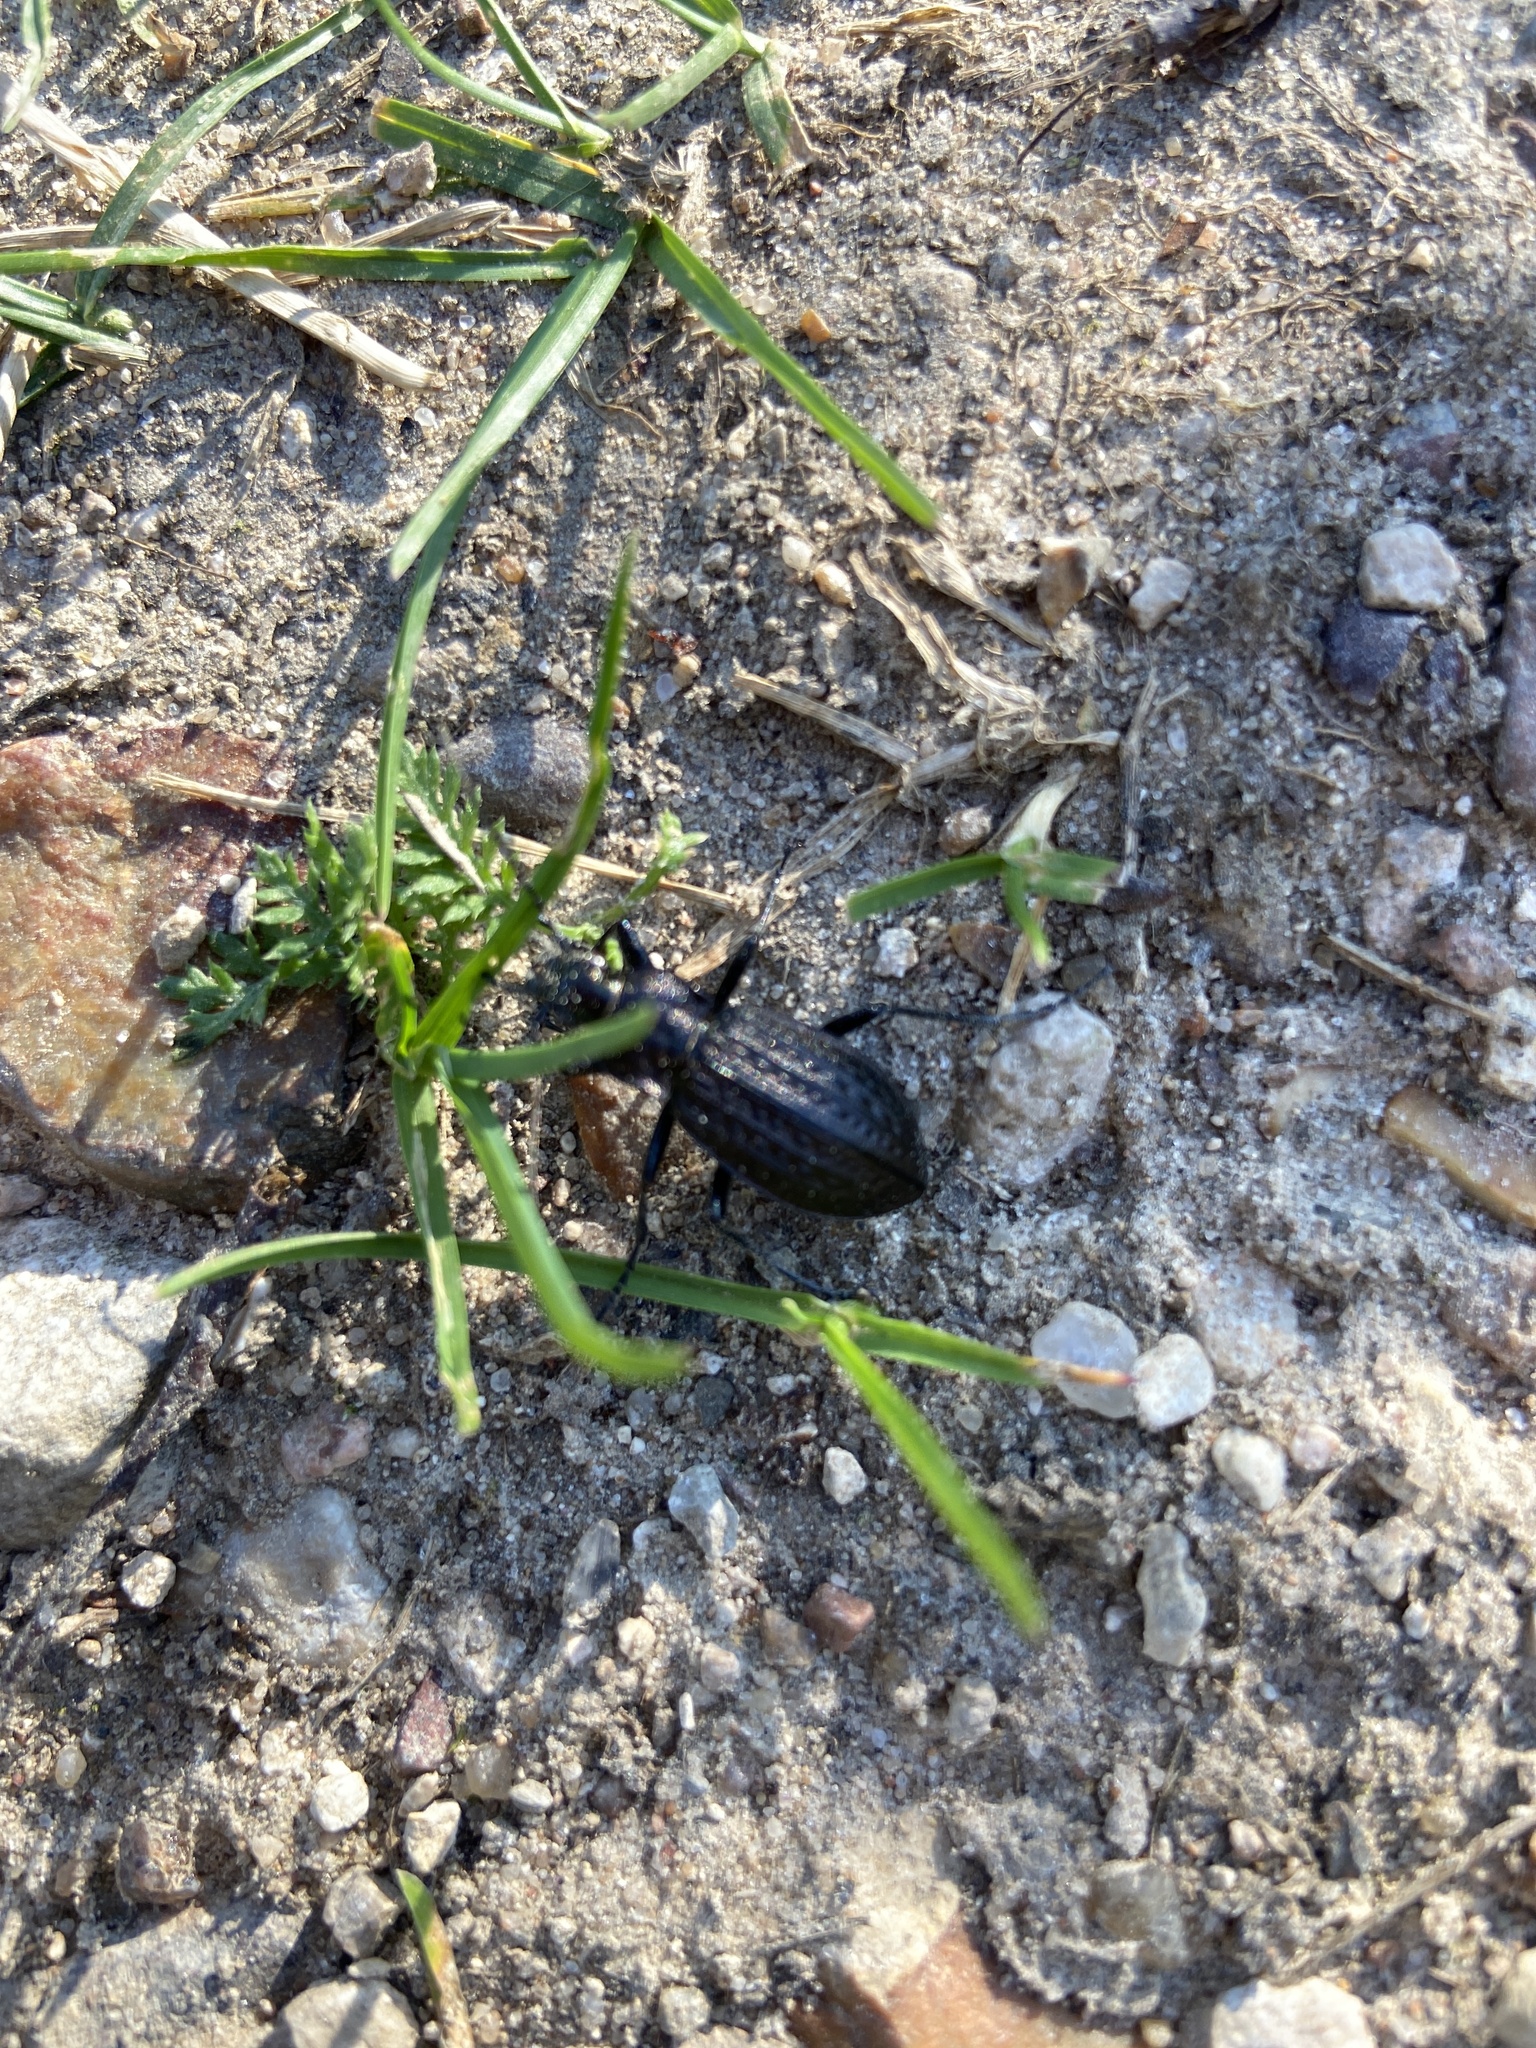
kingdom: Animalia
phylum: Arthropoda
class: Insecta
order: Coleoptera
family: Carabidae
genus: Carabus
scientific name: Carabus granulatus
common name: Granulate ground beetle
